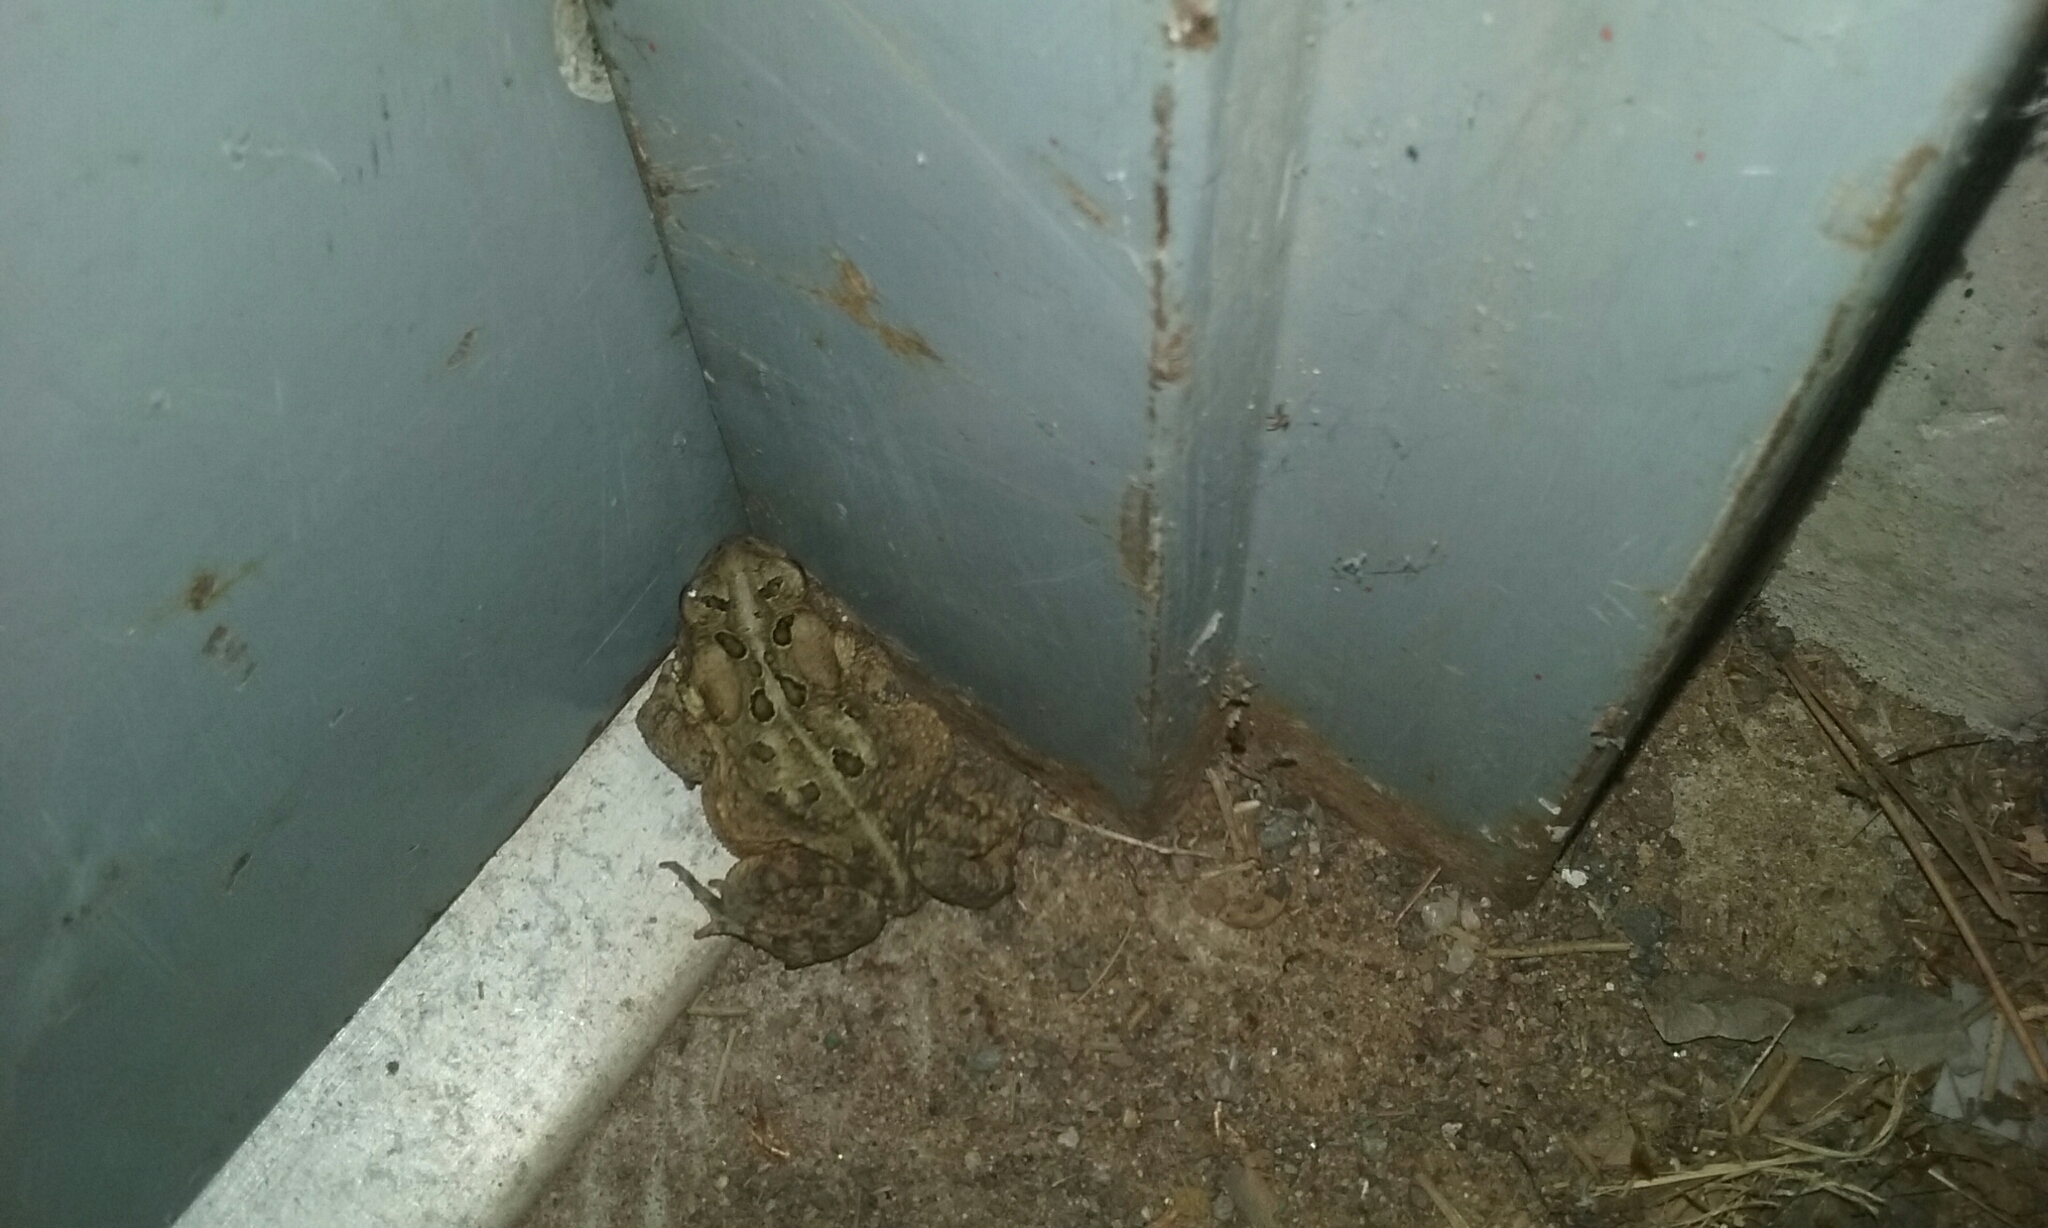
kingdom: Animalia
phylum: Chordata
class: Amphibia
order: Anura
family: Bufonidae
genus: Anaxyrus
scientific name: Anaxyrus americanus
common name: American toad
